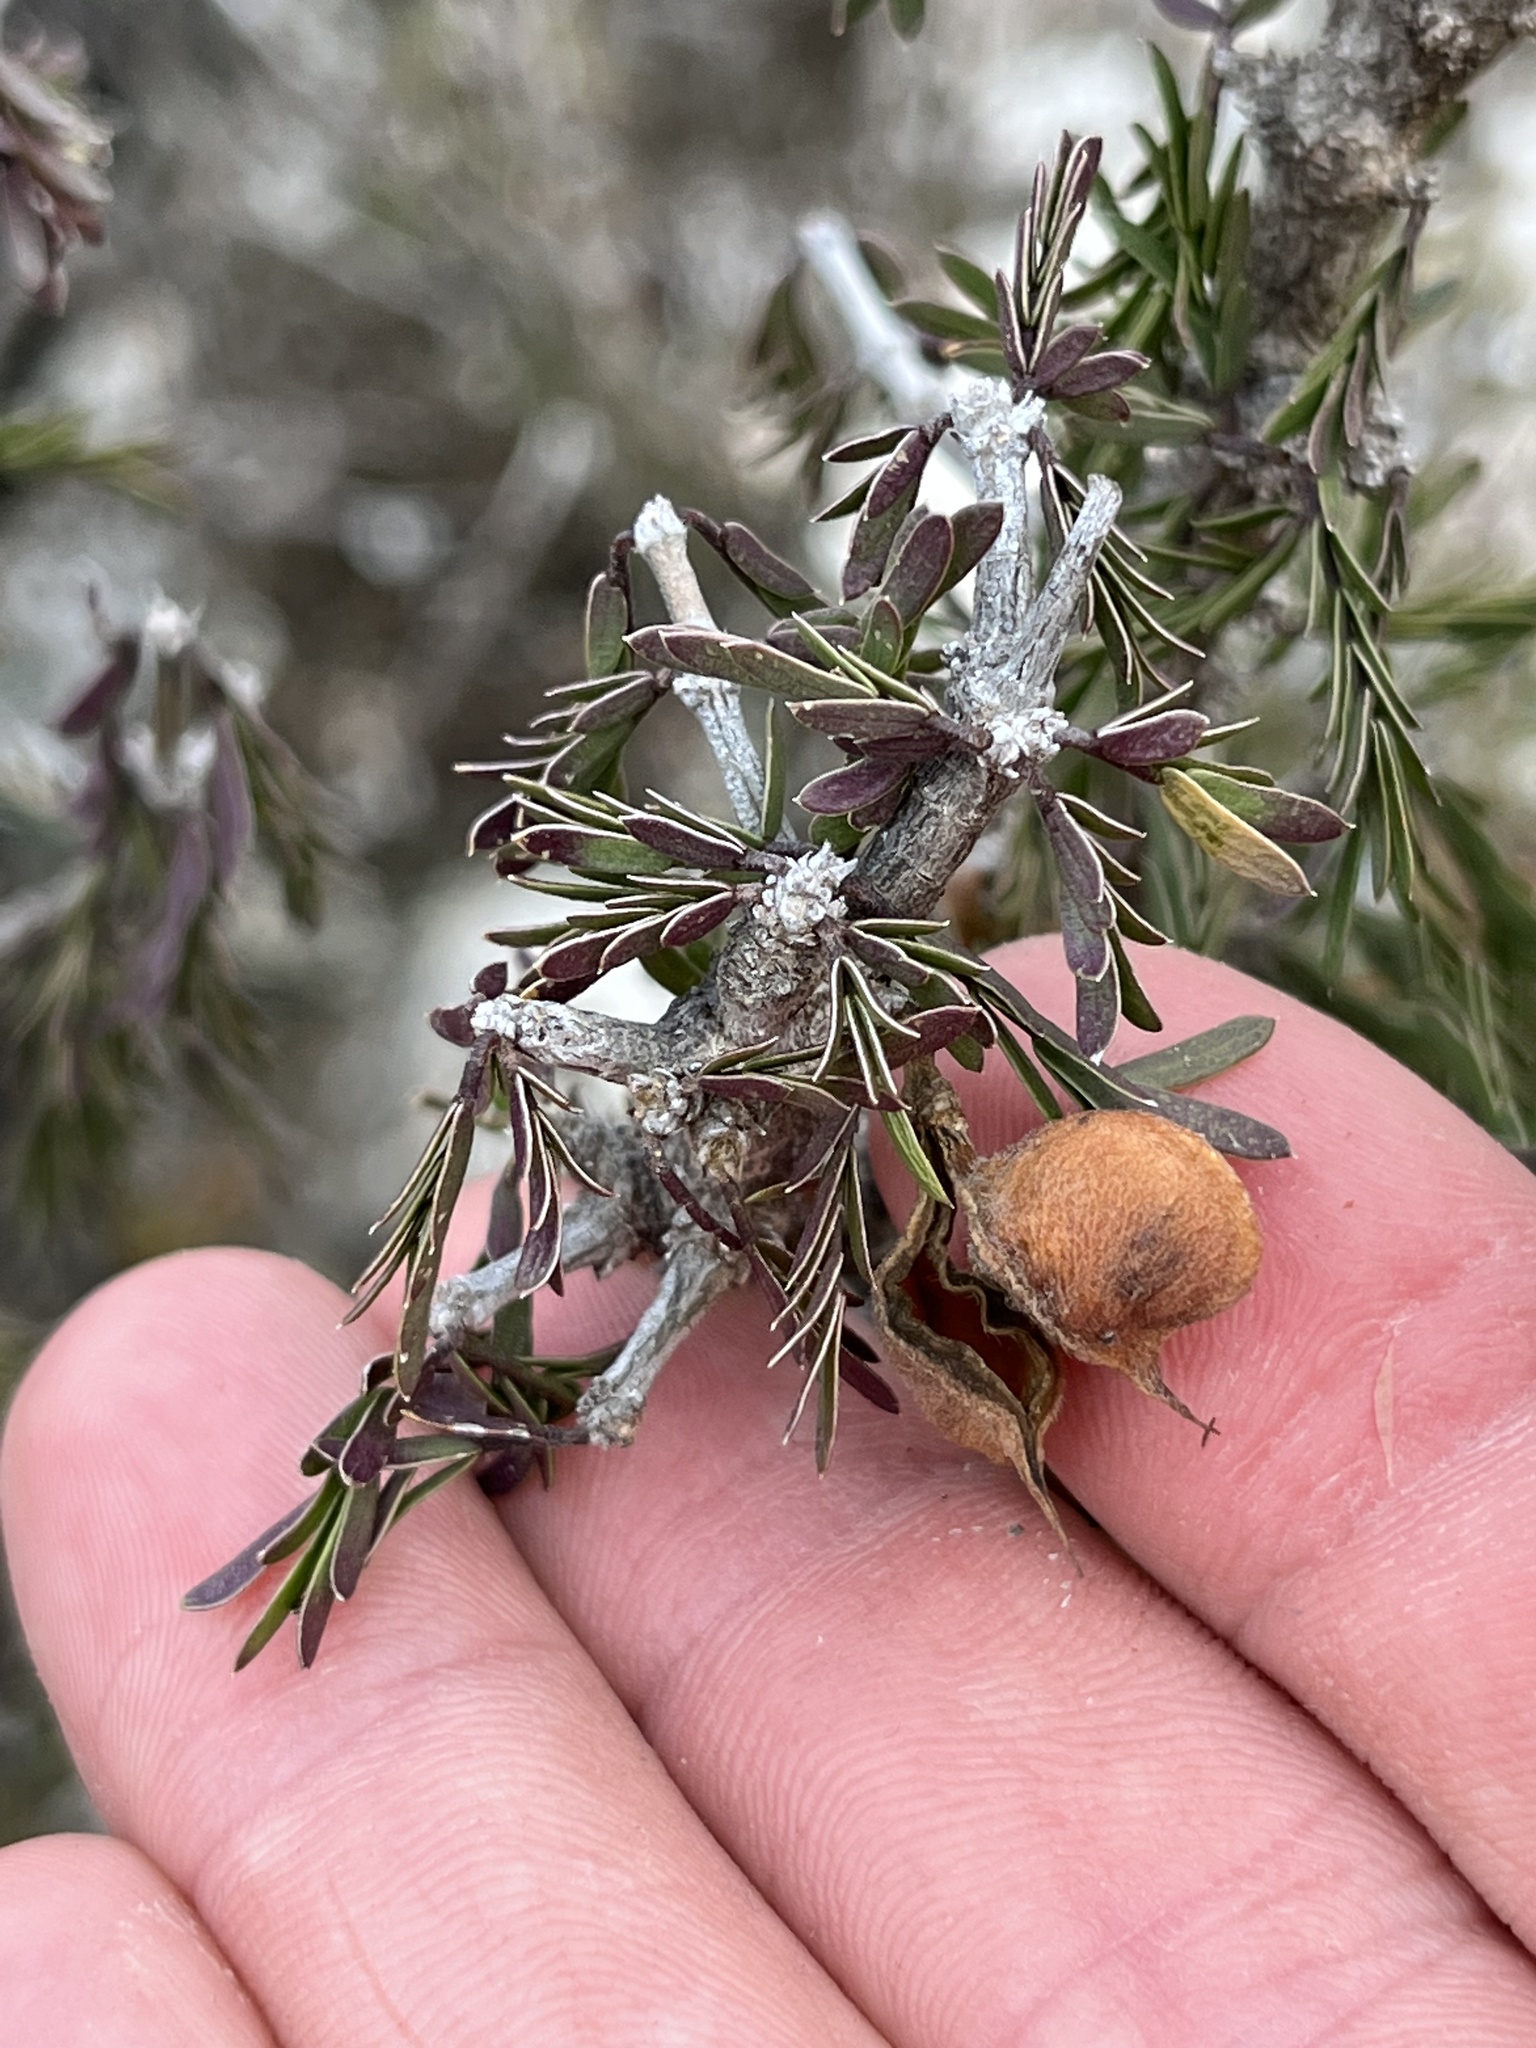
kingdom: Plantae
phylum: Tracheophyta
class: Magnoliopsida
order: Zygophyllales
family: Zygophyllaceae
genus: Porlieria
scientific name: Porlieria angustifolia
